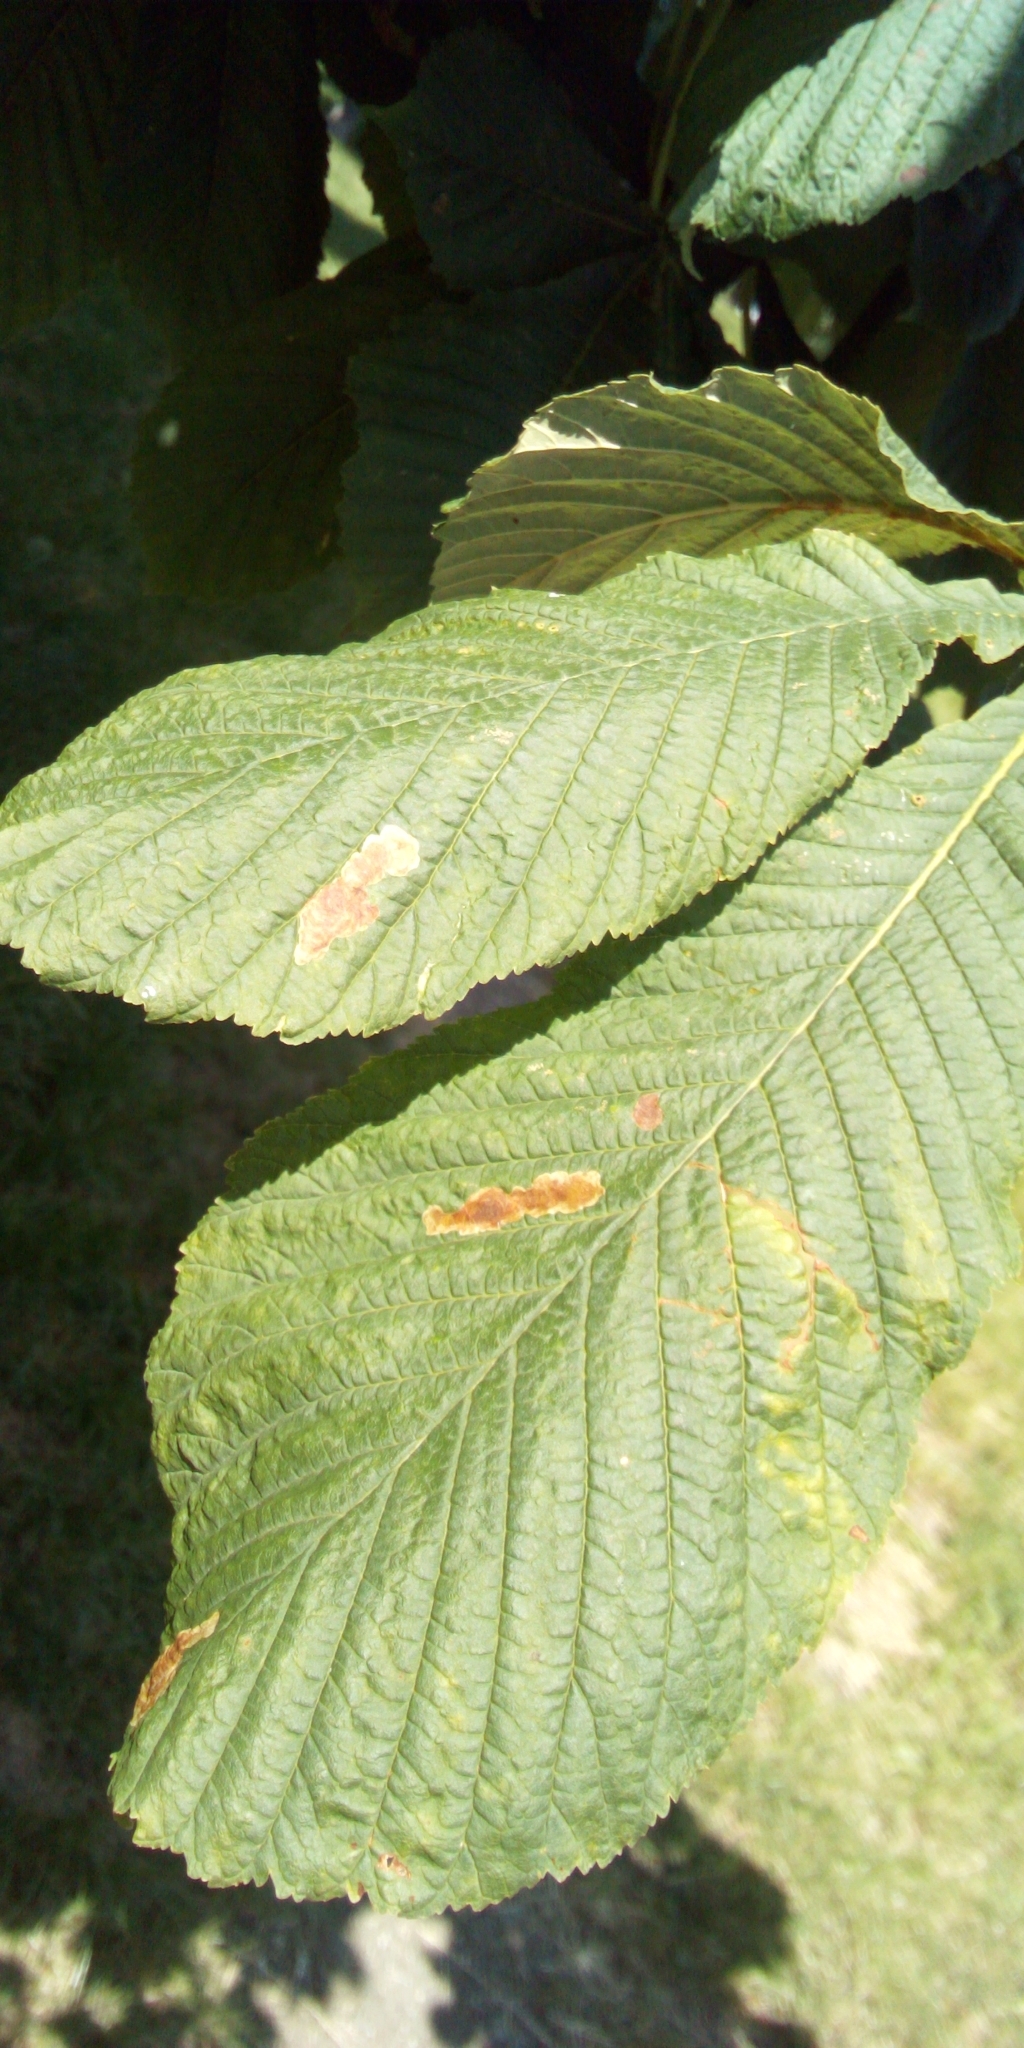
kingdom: Animalia
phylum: Arthropoda
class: Insecta
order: Lepidoptera
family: Gracillariidae
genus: Cameraria
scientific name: Cameraria ohridella
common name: Horse-chestnut leaf-miner
